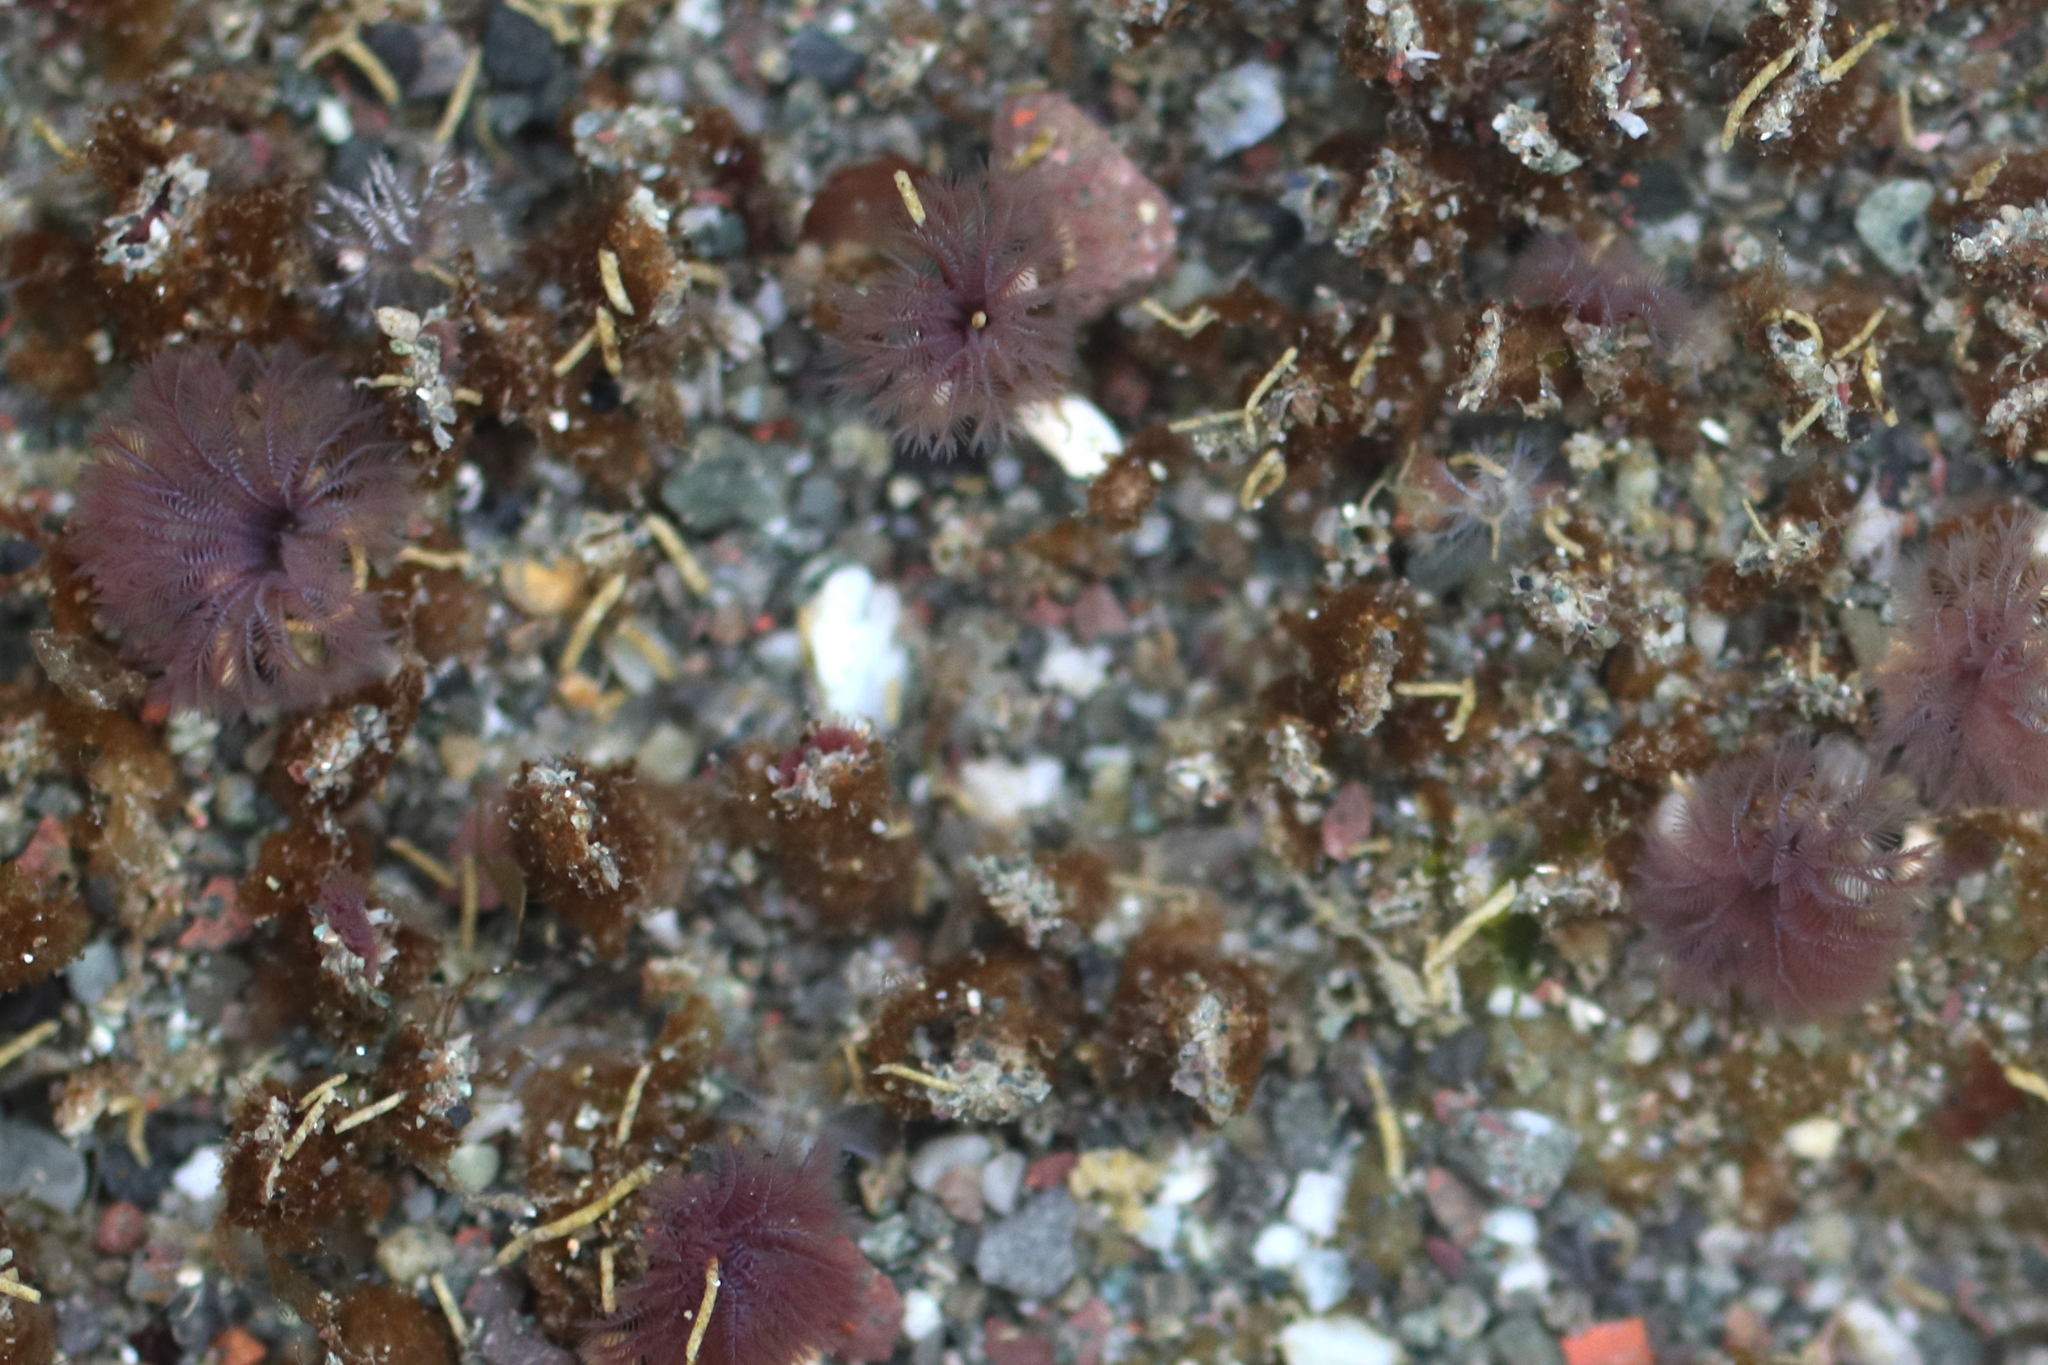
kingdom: Animalia
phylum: Annelida
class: Polychaeta
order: Sabellida
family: Sabellidae
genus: Schizobranchia
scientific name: Schizobranchia insignis
